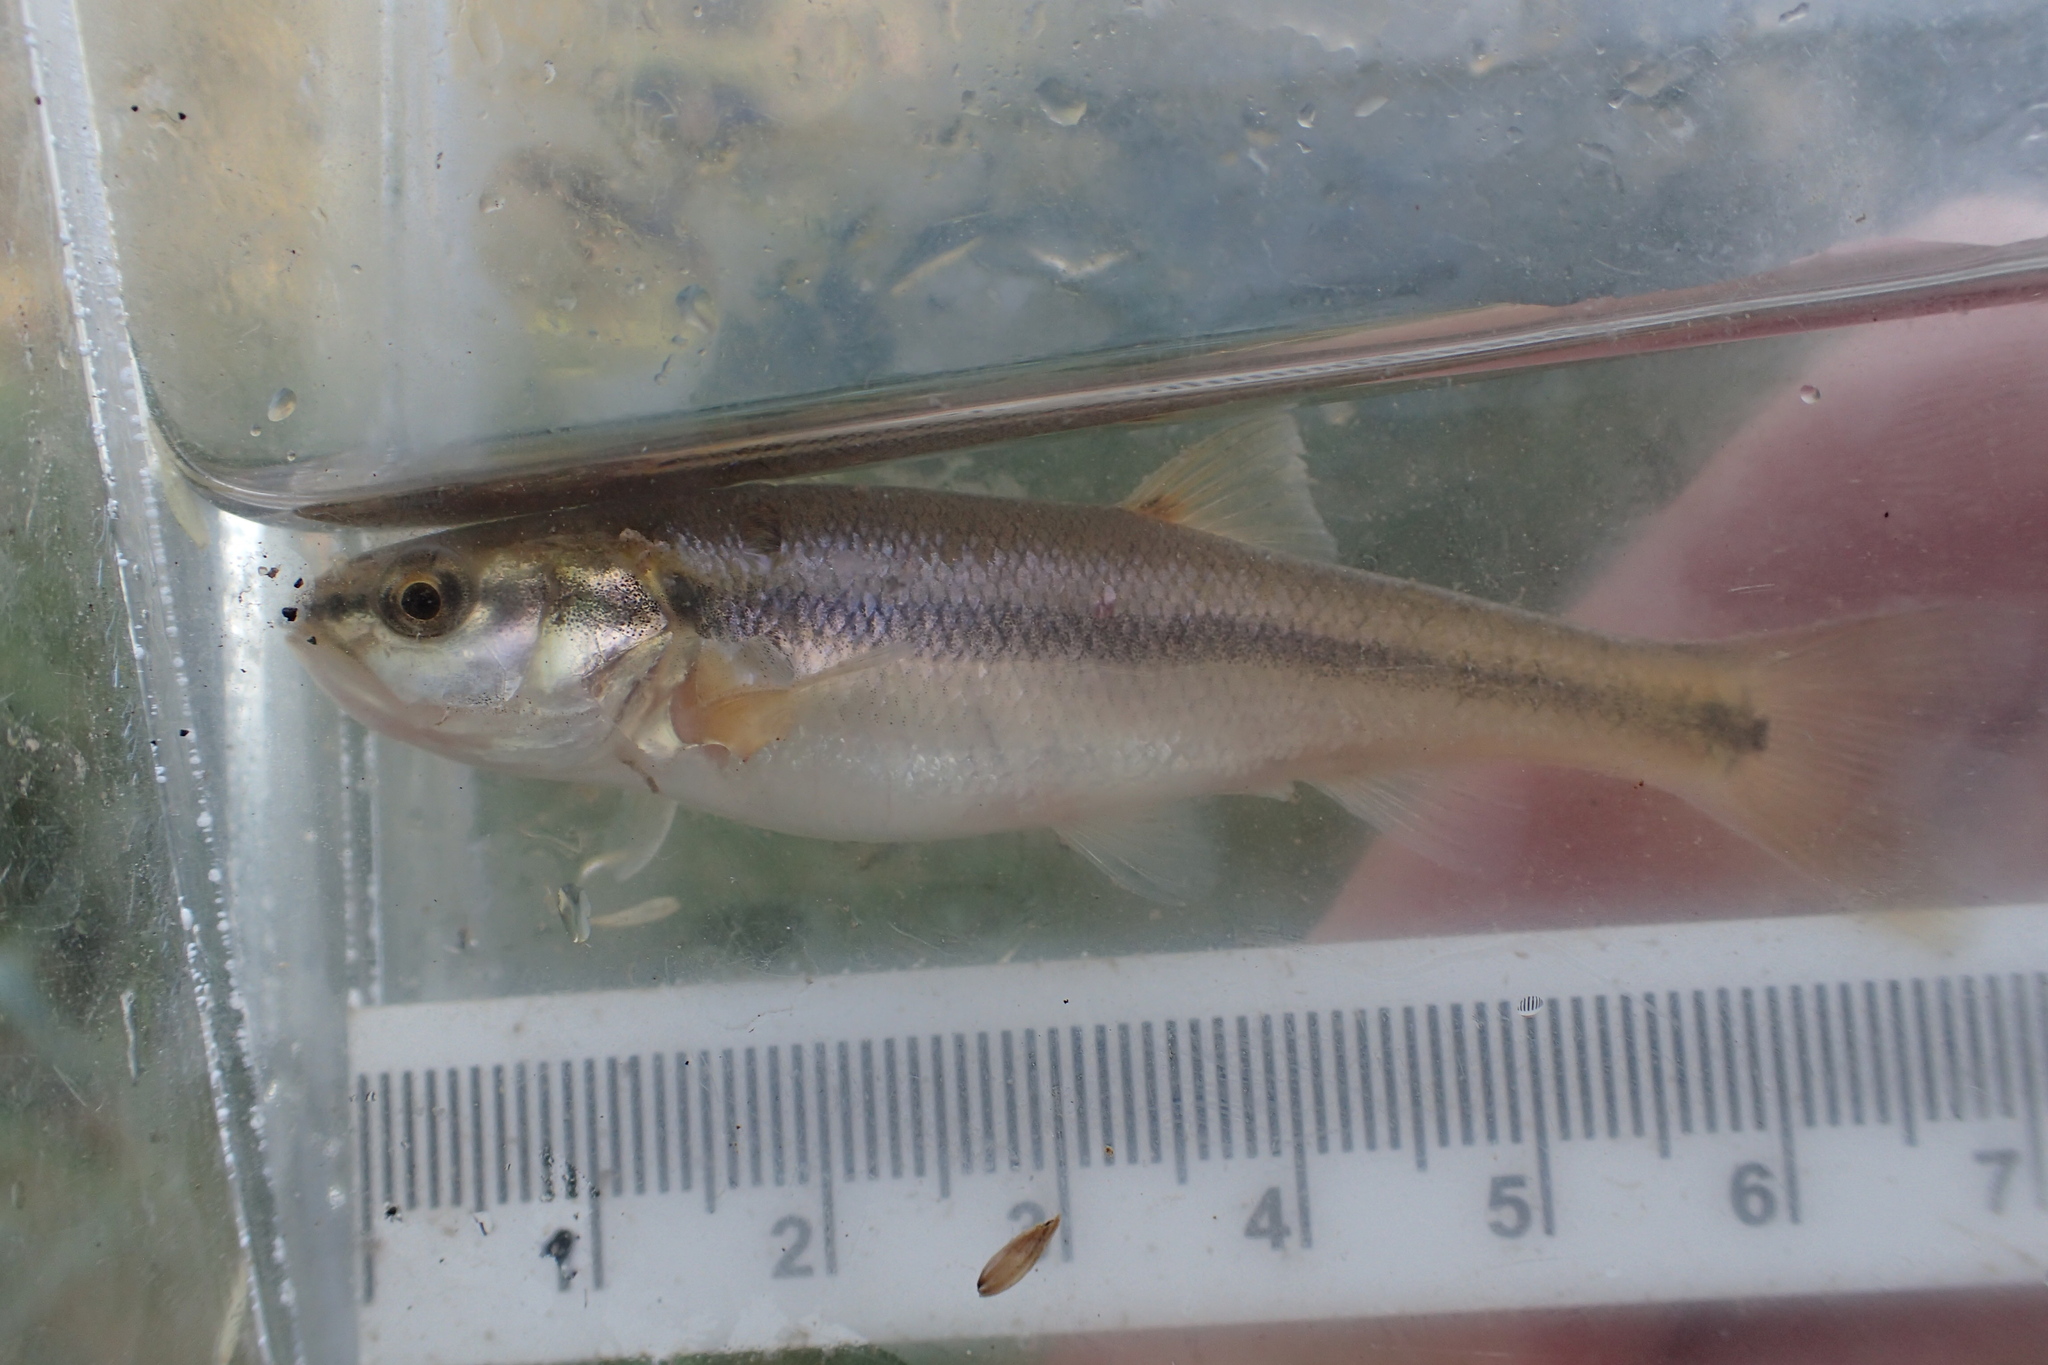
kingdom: Animalia
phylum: Chordata
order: Cypriniformes
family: Cyprinidae
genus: Semotilus
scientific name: Semotilus atromaculatus
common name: Creek chub
